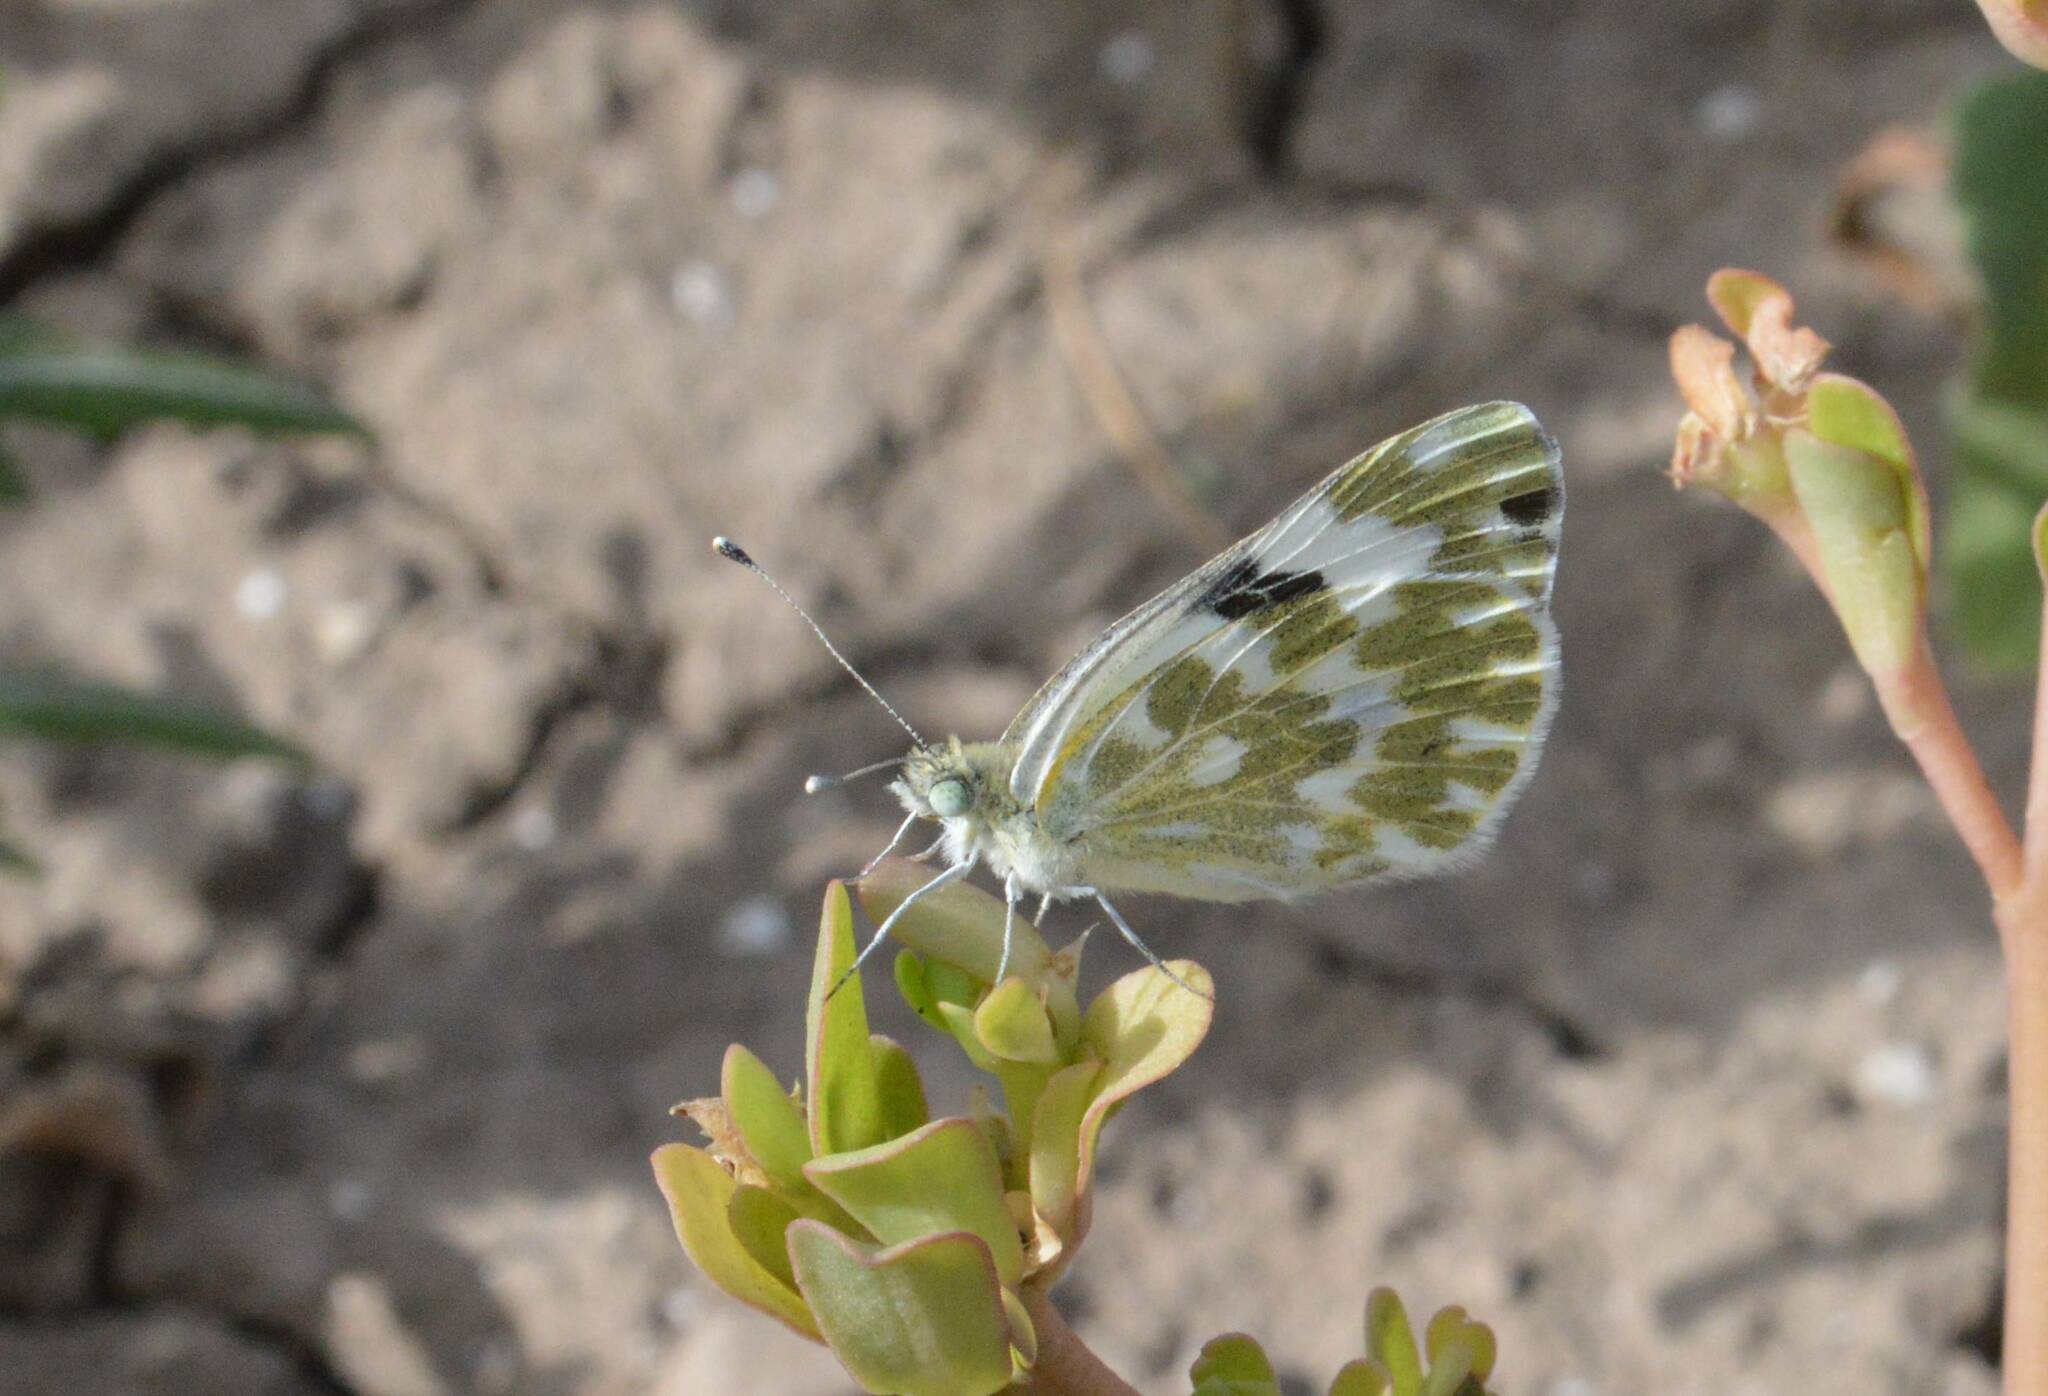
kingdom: Animalia
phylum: Arthropoda
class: Insecta
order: Lepidoptera
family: Pieridae
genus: Pontia
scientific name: Pontia daplidice
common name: Bath white
